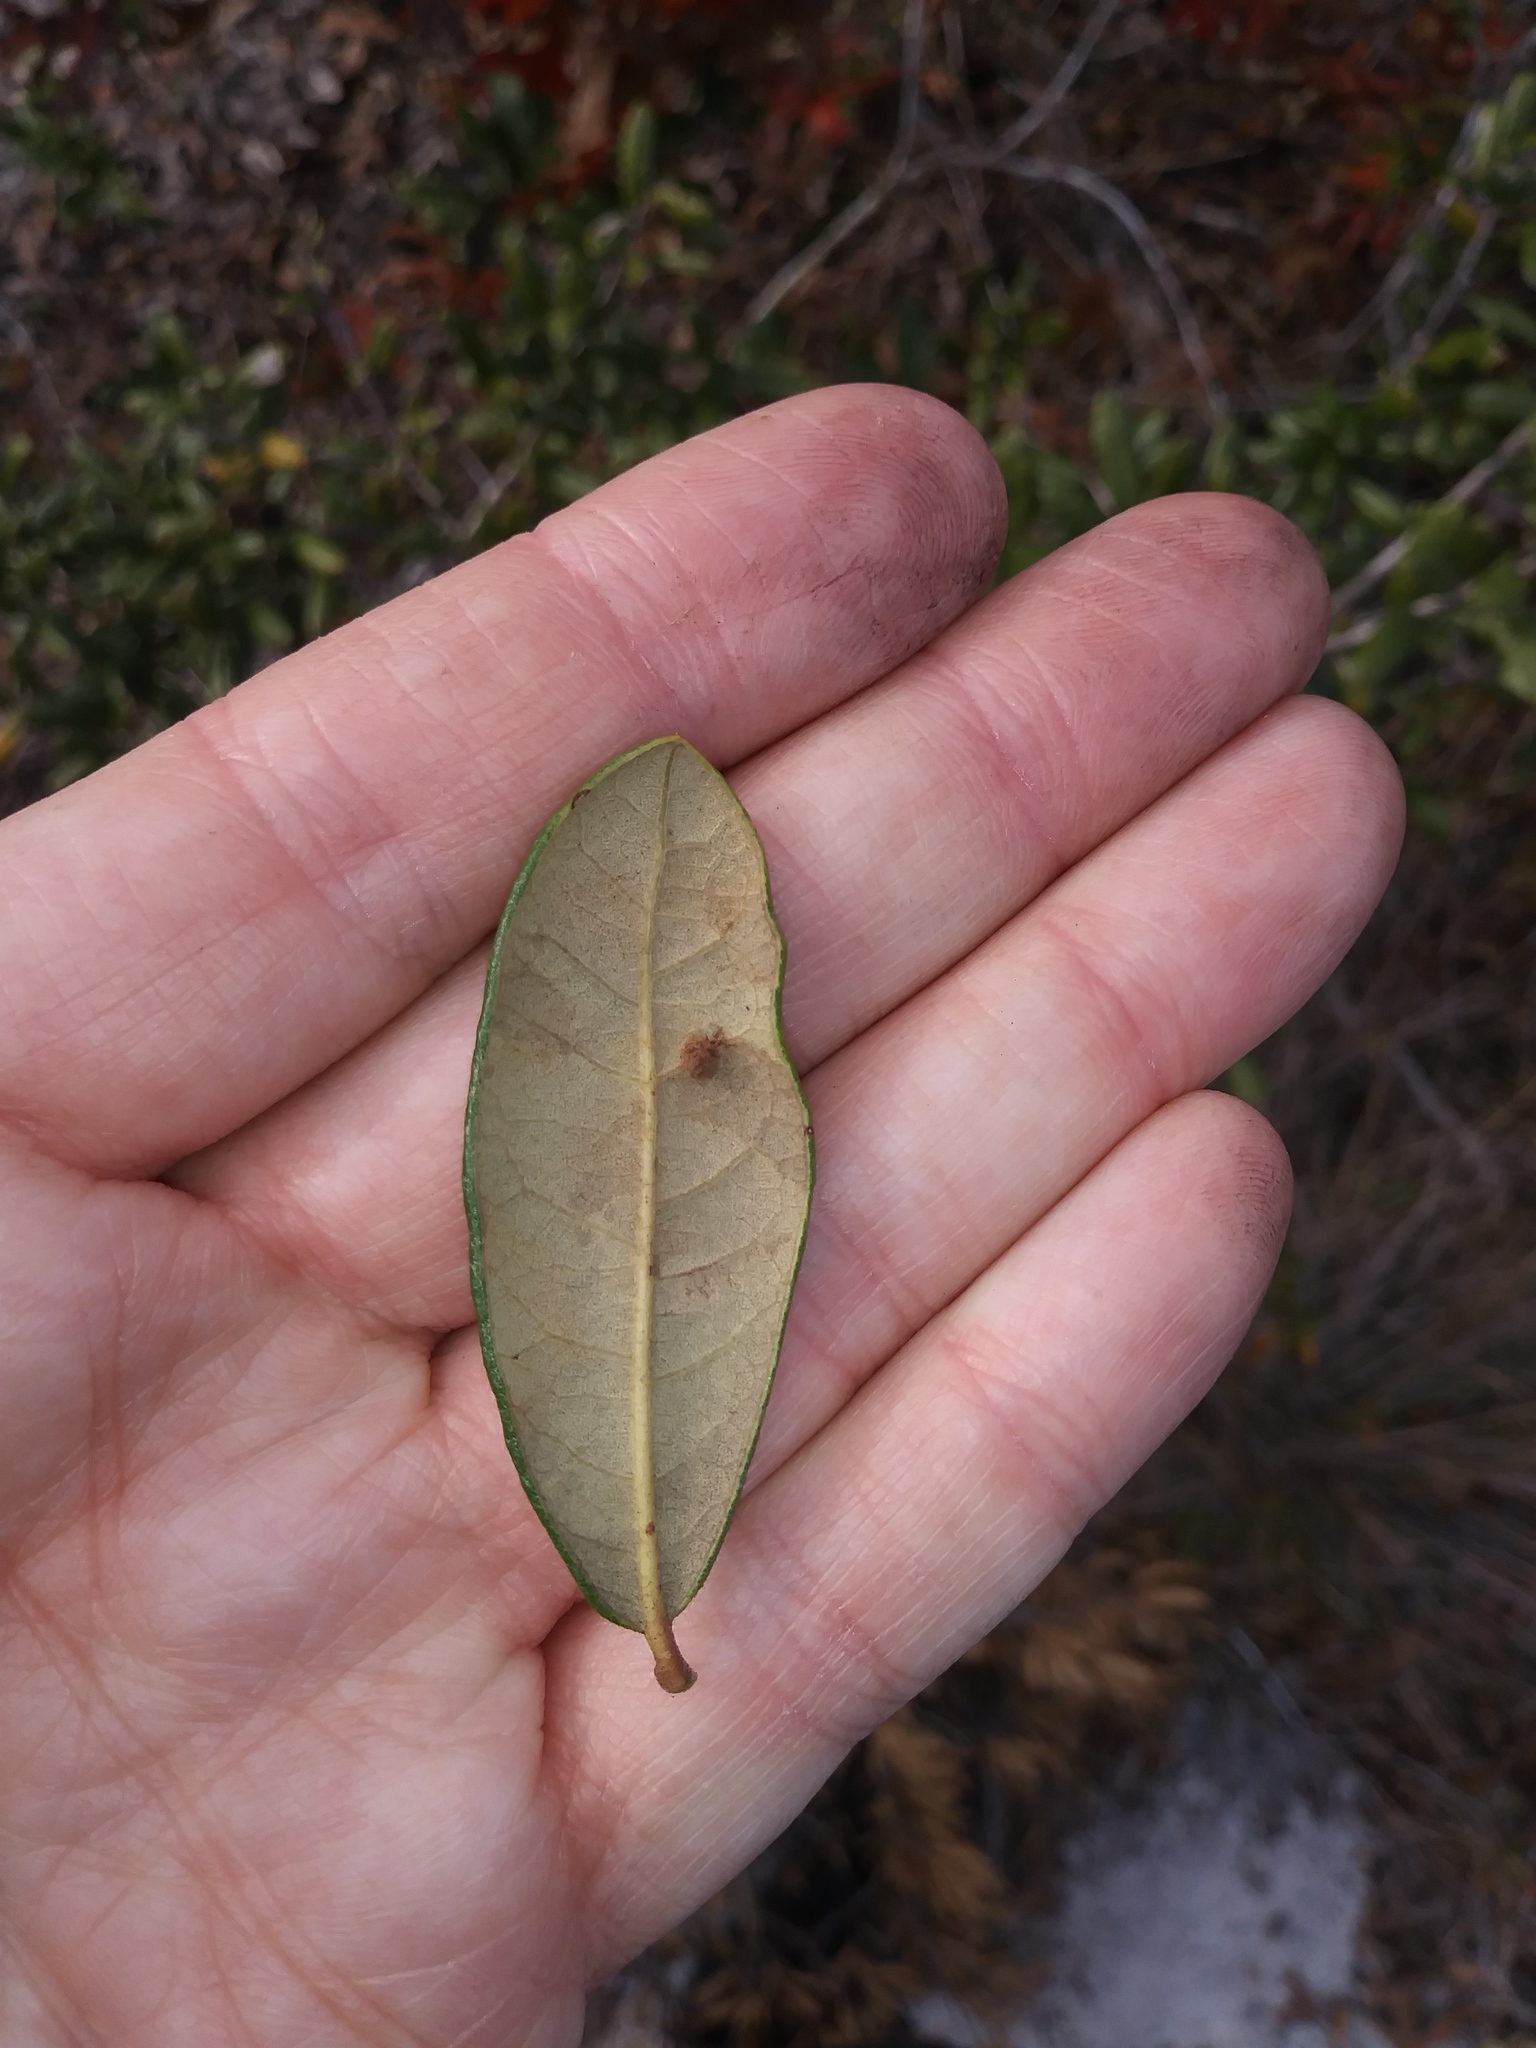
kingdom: Plantae
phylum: Tracheophyta
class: Magnoliopsida
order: Fagales
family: Fagaceae
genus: Quercus
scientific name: Quercus geminata
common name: Sand live oak
